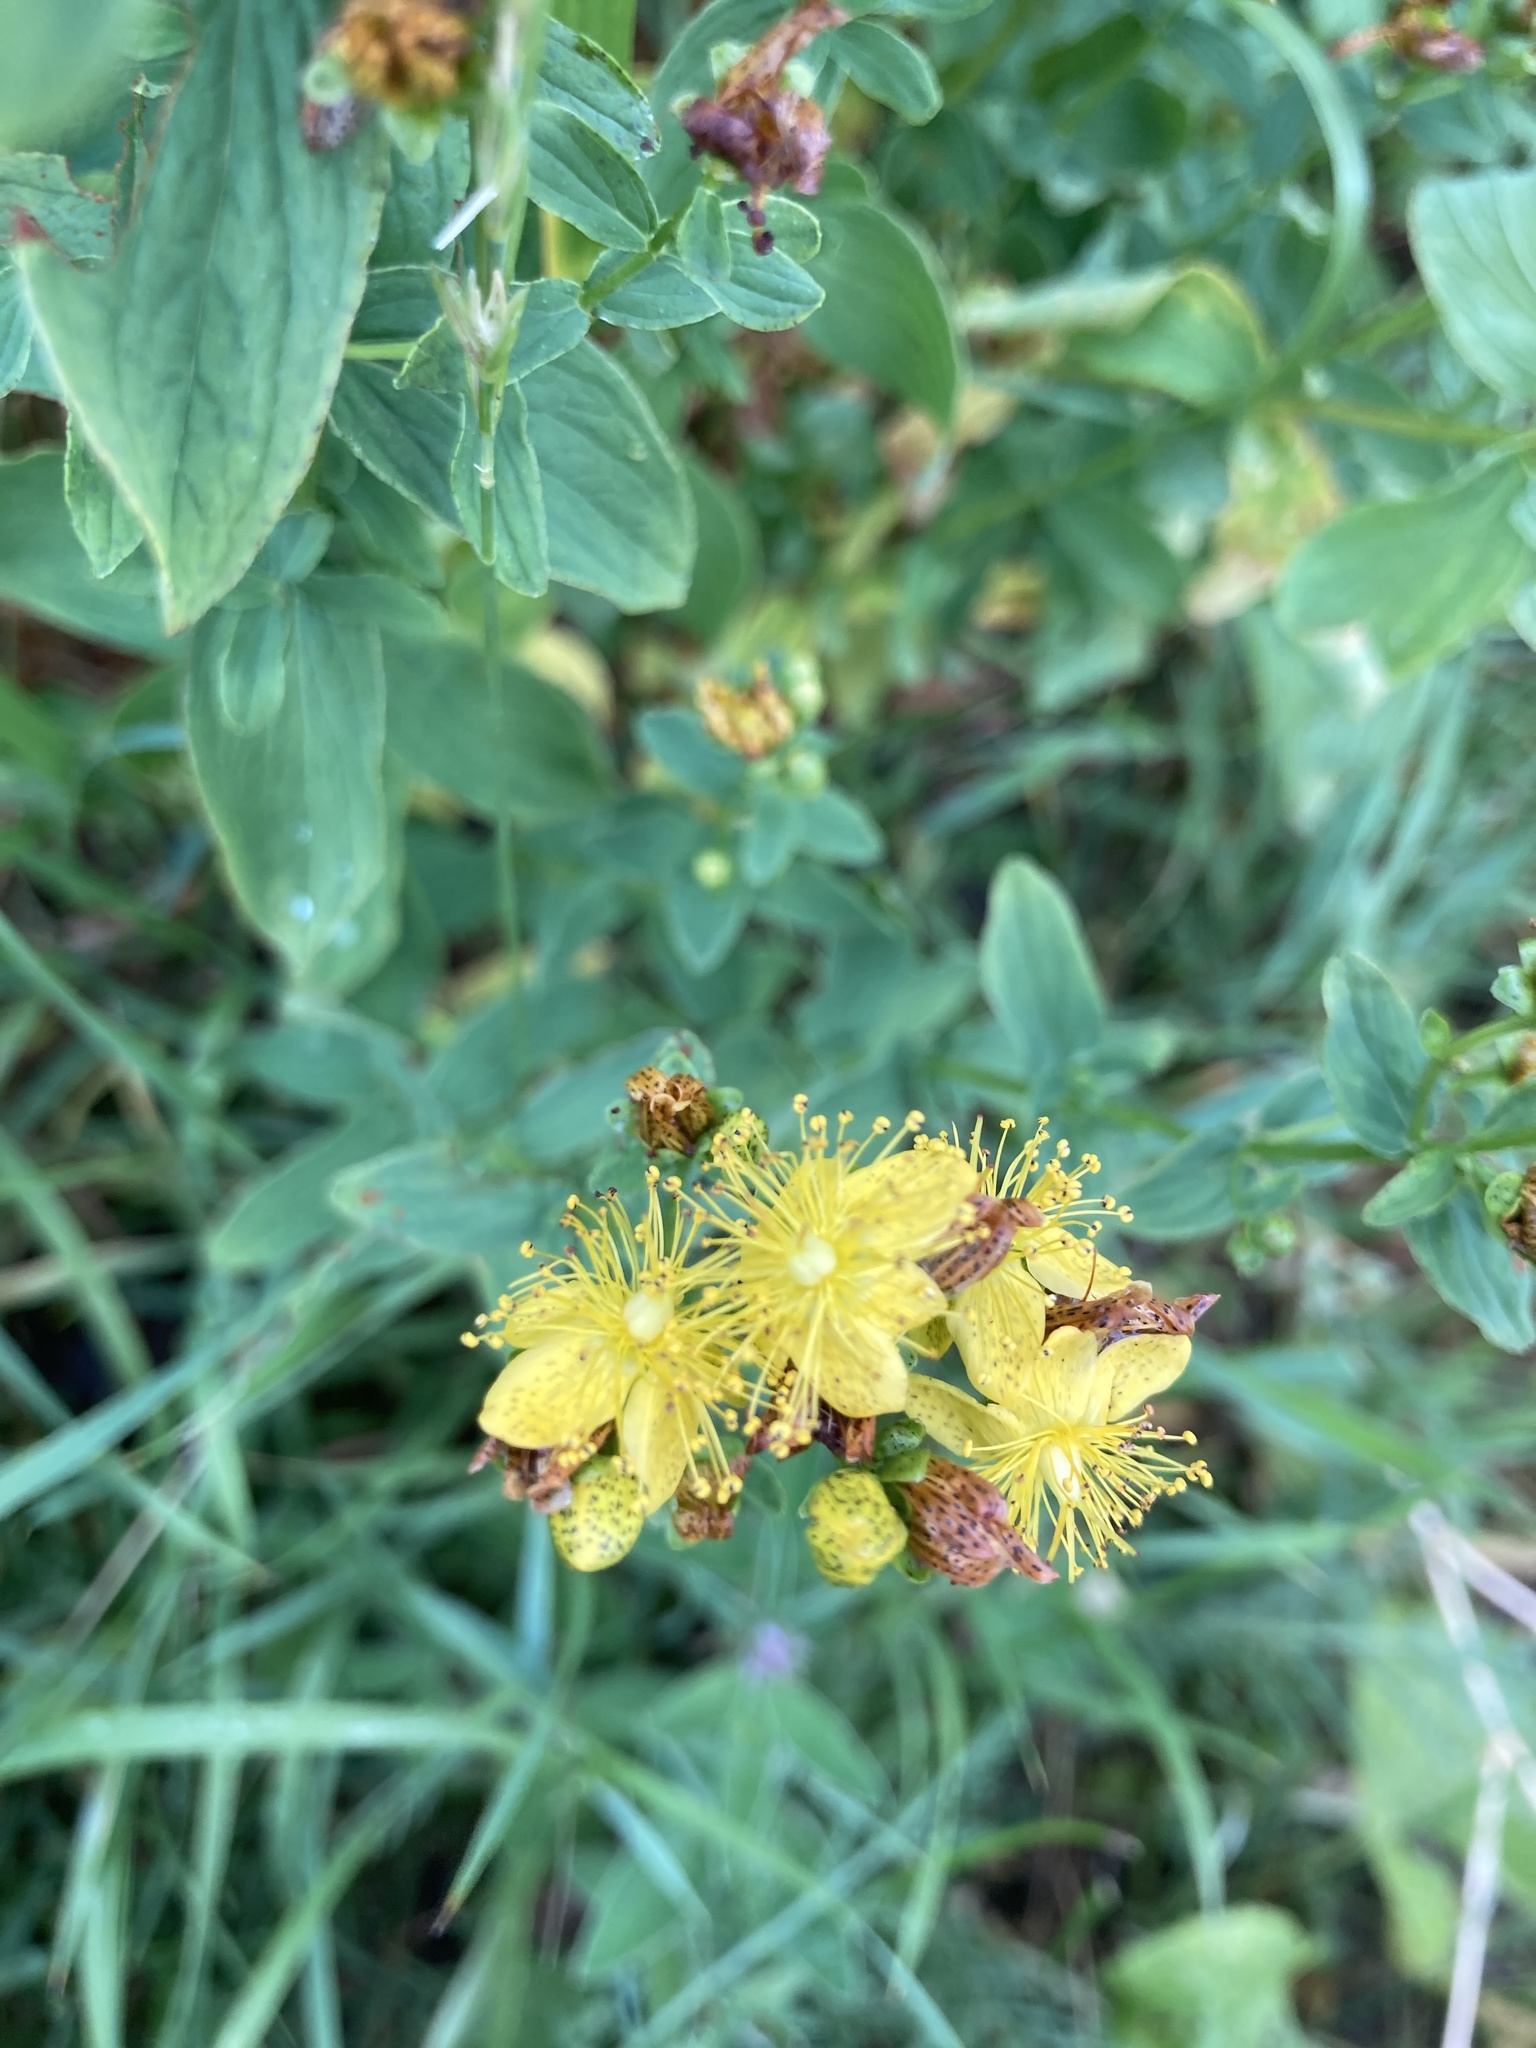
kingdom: Plantae
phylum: Tracheophyta
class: Magnoliopsida
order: Malpighiales
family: Hypericaceae
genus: Hypericum
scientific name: Hypericum maculatum
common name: Imperforate st. john's-wort
